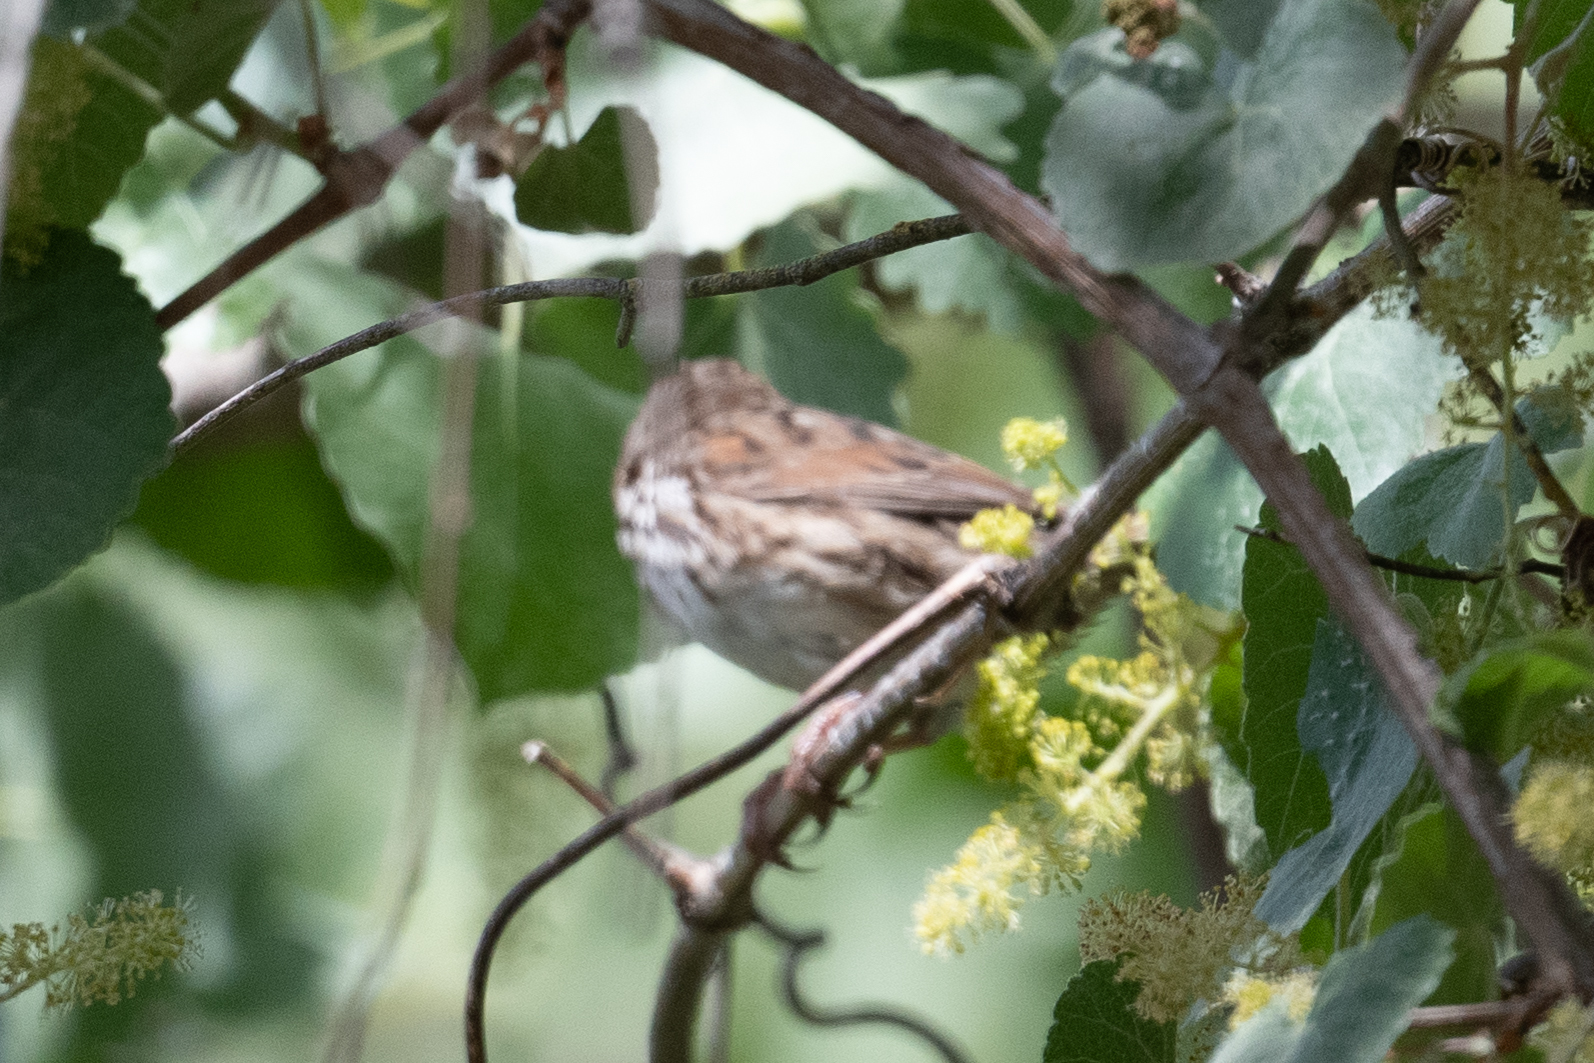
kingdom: Animalia
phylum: Chordata
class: Aves
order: Passeriformes
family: Passerellidae
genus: Melospiza
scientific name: Melospiza melodia
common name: Song sparrow
